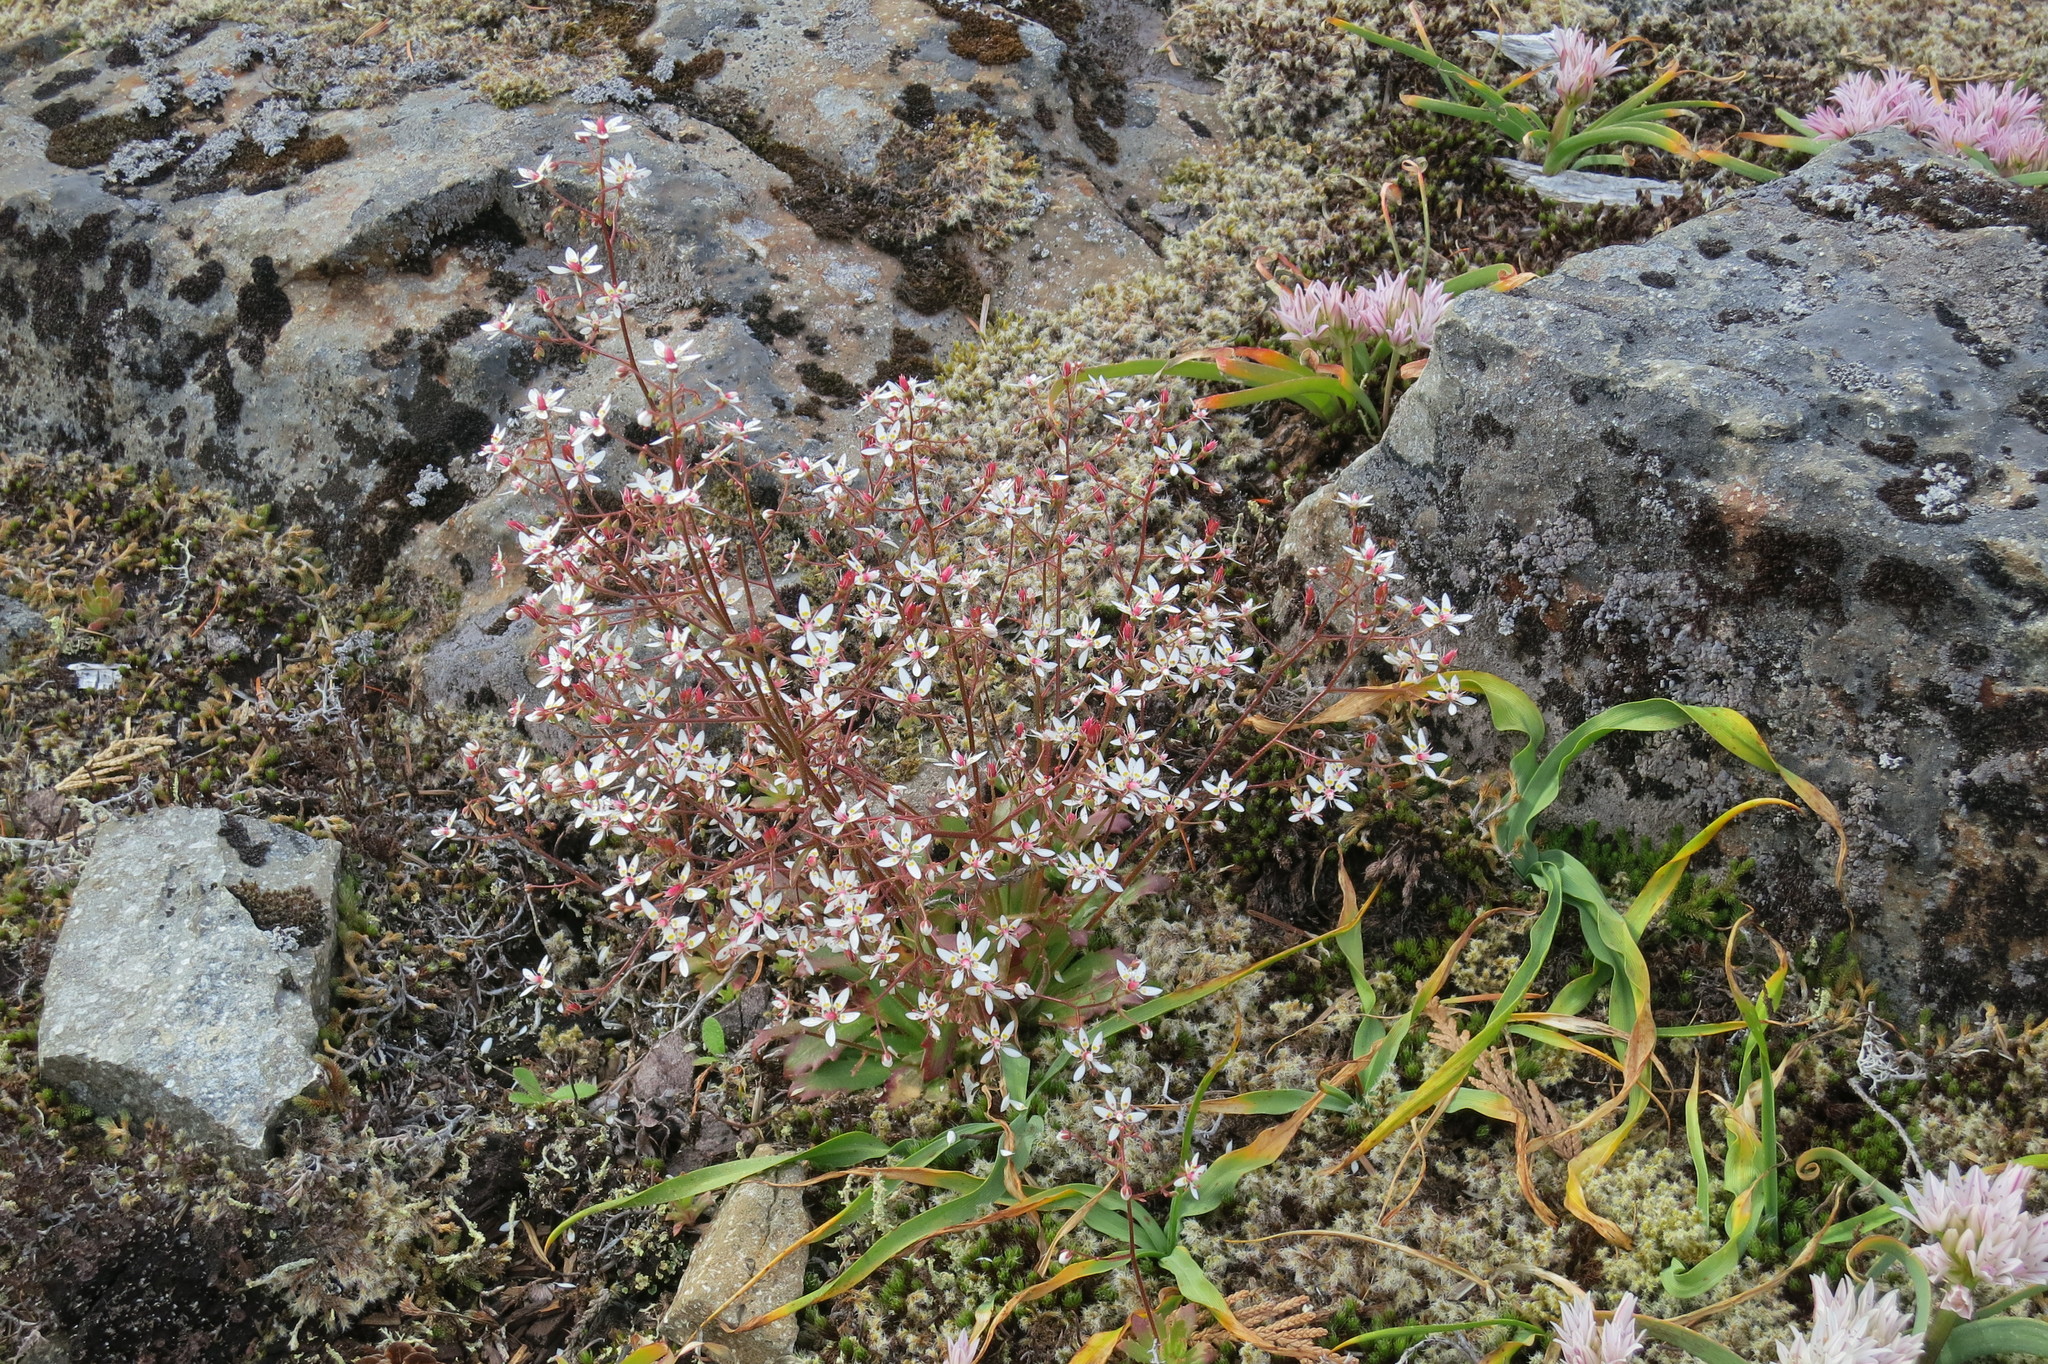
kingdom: Plantae
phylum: Tracheophyta
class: Magnoliopsida
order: Saxifragales
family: Saxifragaceae
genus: Micranthes
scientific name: Micranthes ferruginea
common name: Rusty saxifrage
